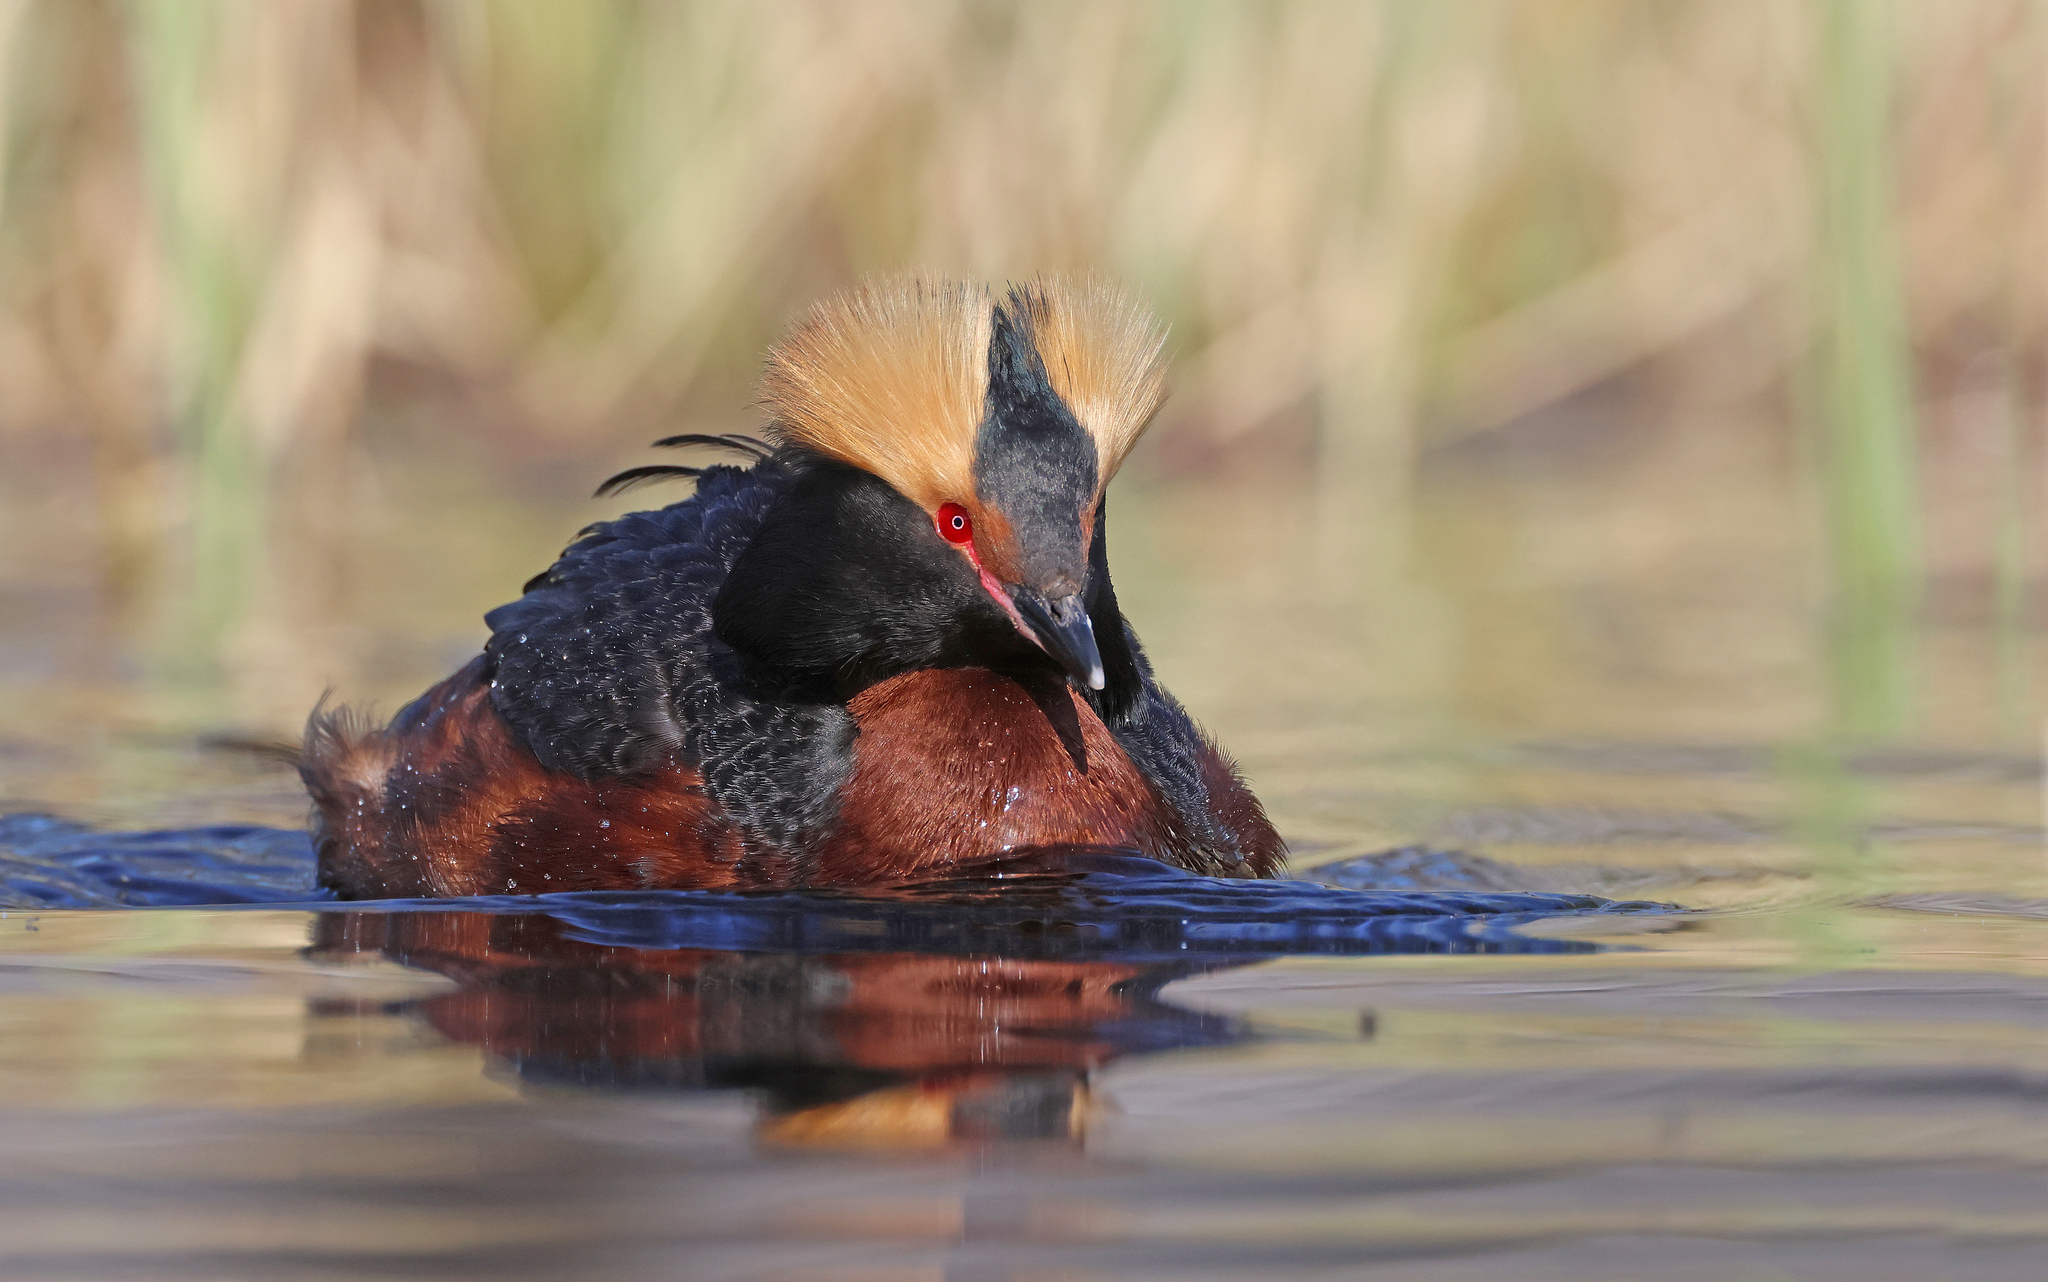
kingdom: Animalia
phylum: Chordata
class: Aves
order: Podicipediformes
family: Podicipedidae
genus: Podiceps
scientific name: Podiceps auritus
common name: Horned grebe
